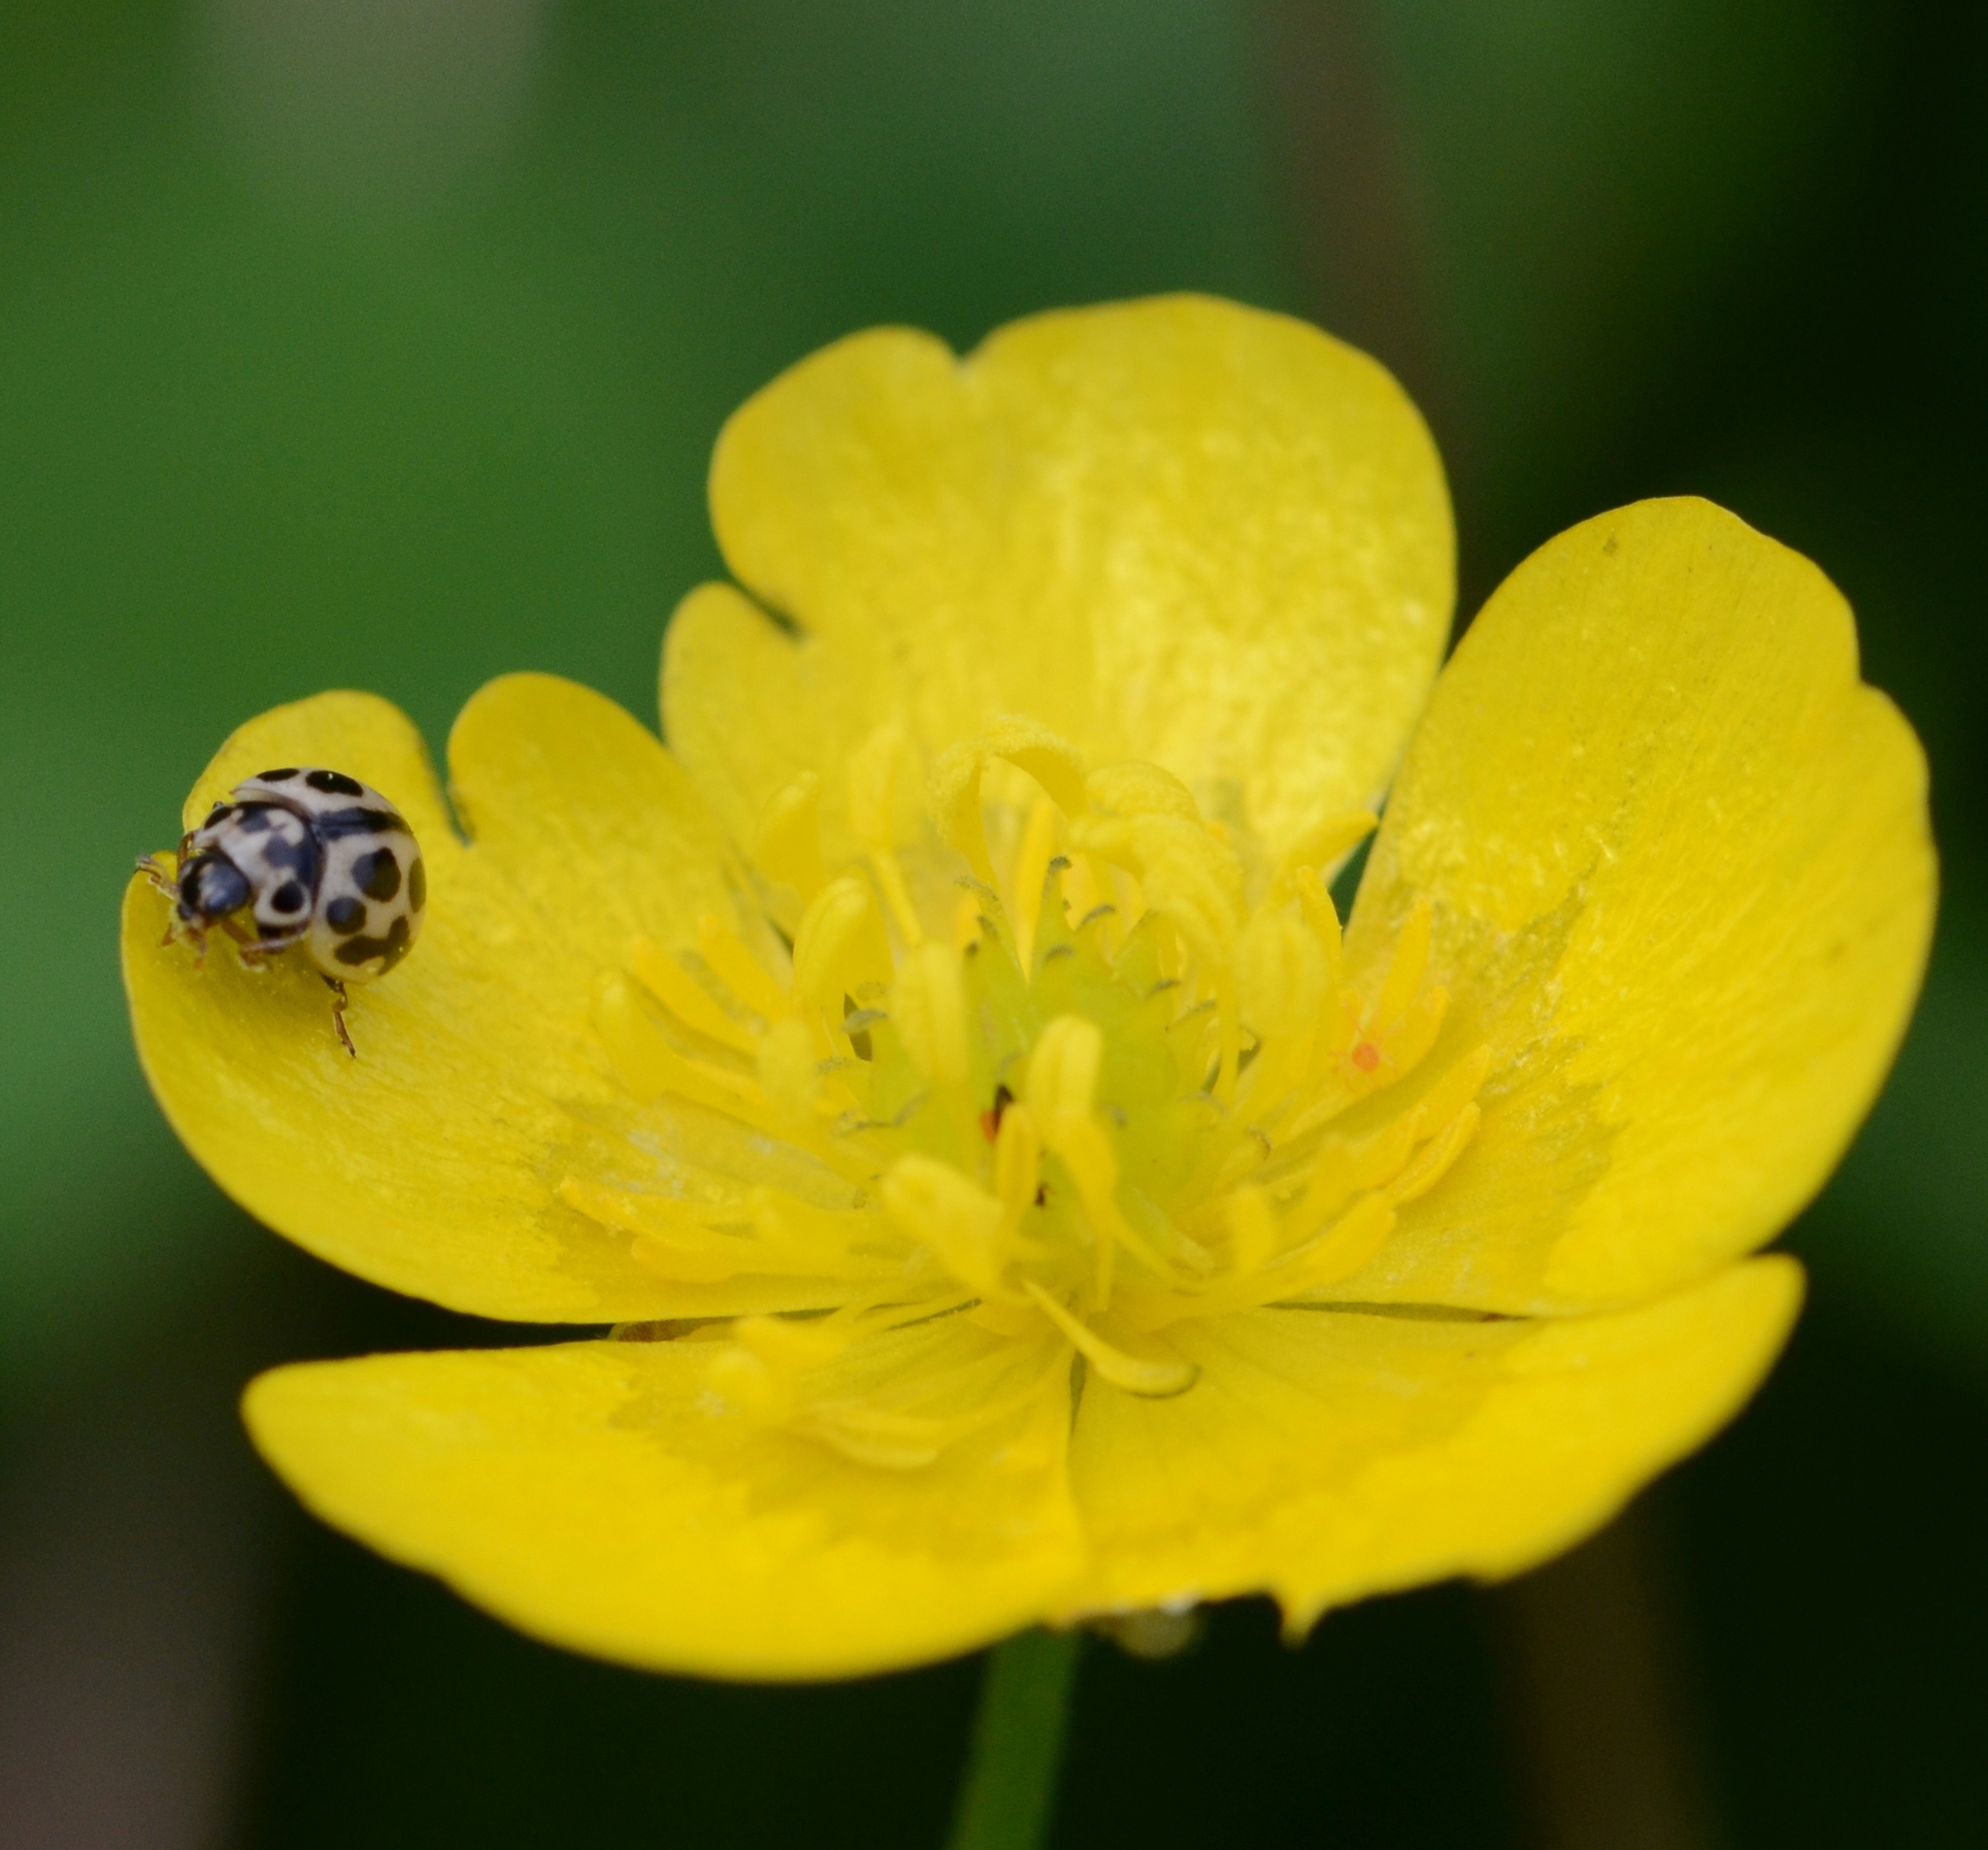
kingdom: Animalia
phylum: Arthropoda
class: Insecta
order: Coleoptera
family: Coccinellidae
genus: Tytthaspis
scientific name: Tytthaspis sedecimpunctata
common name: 16-spot ladybird
